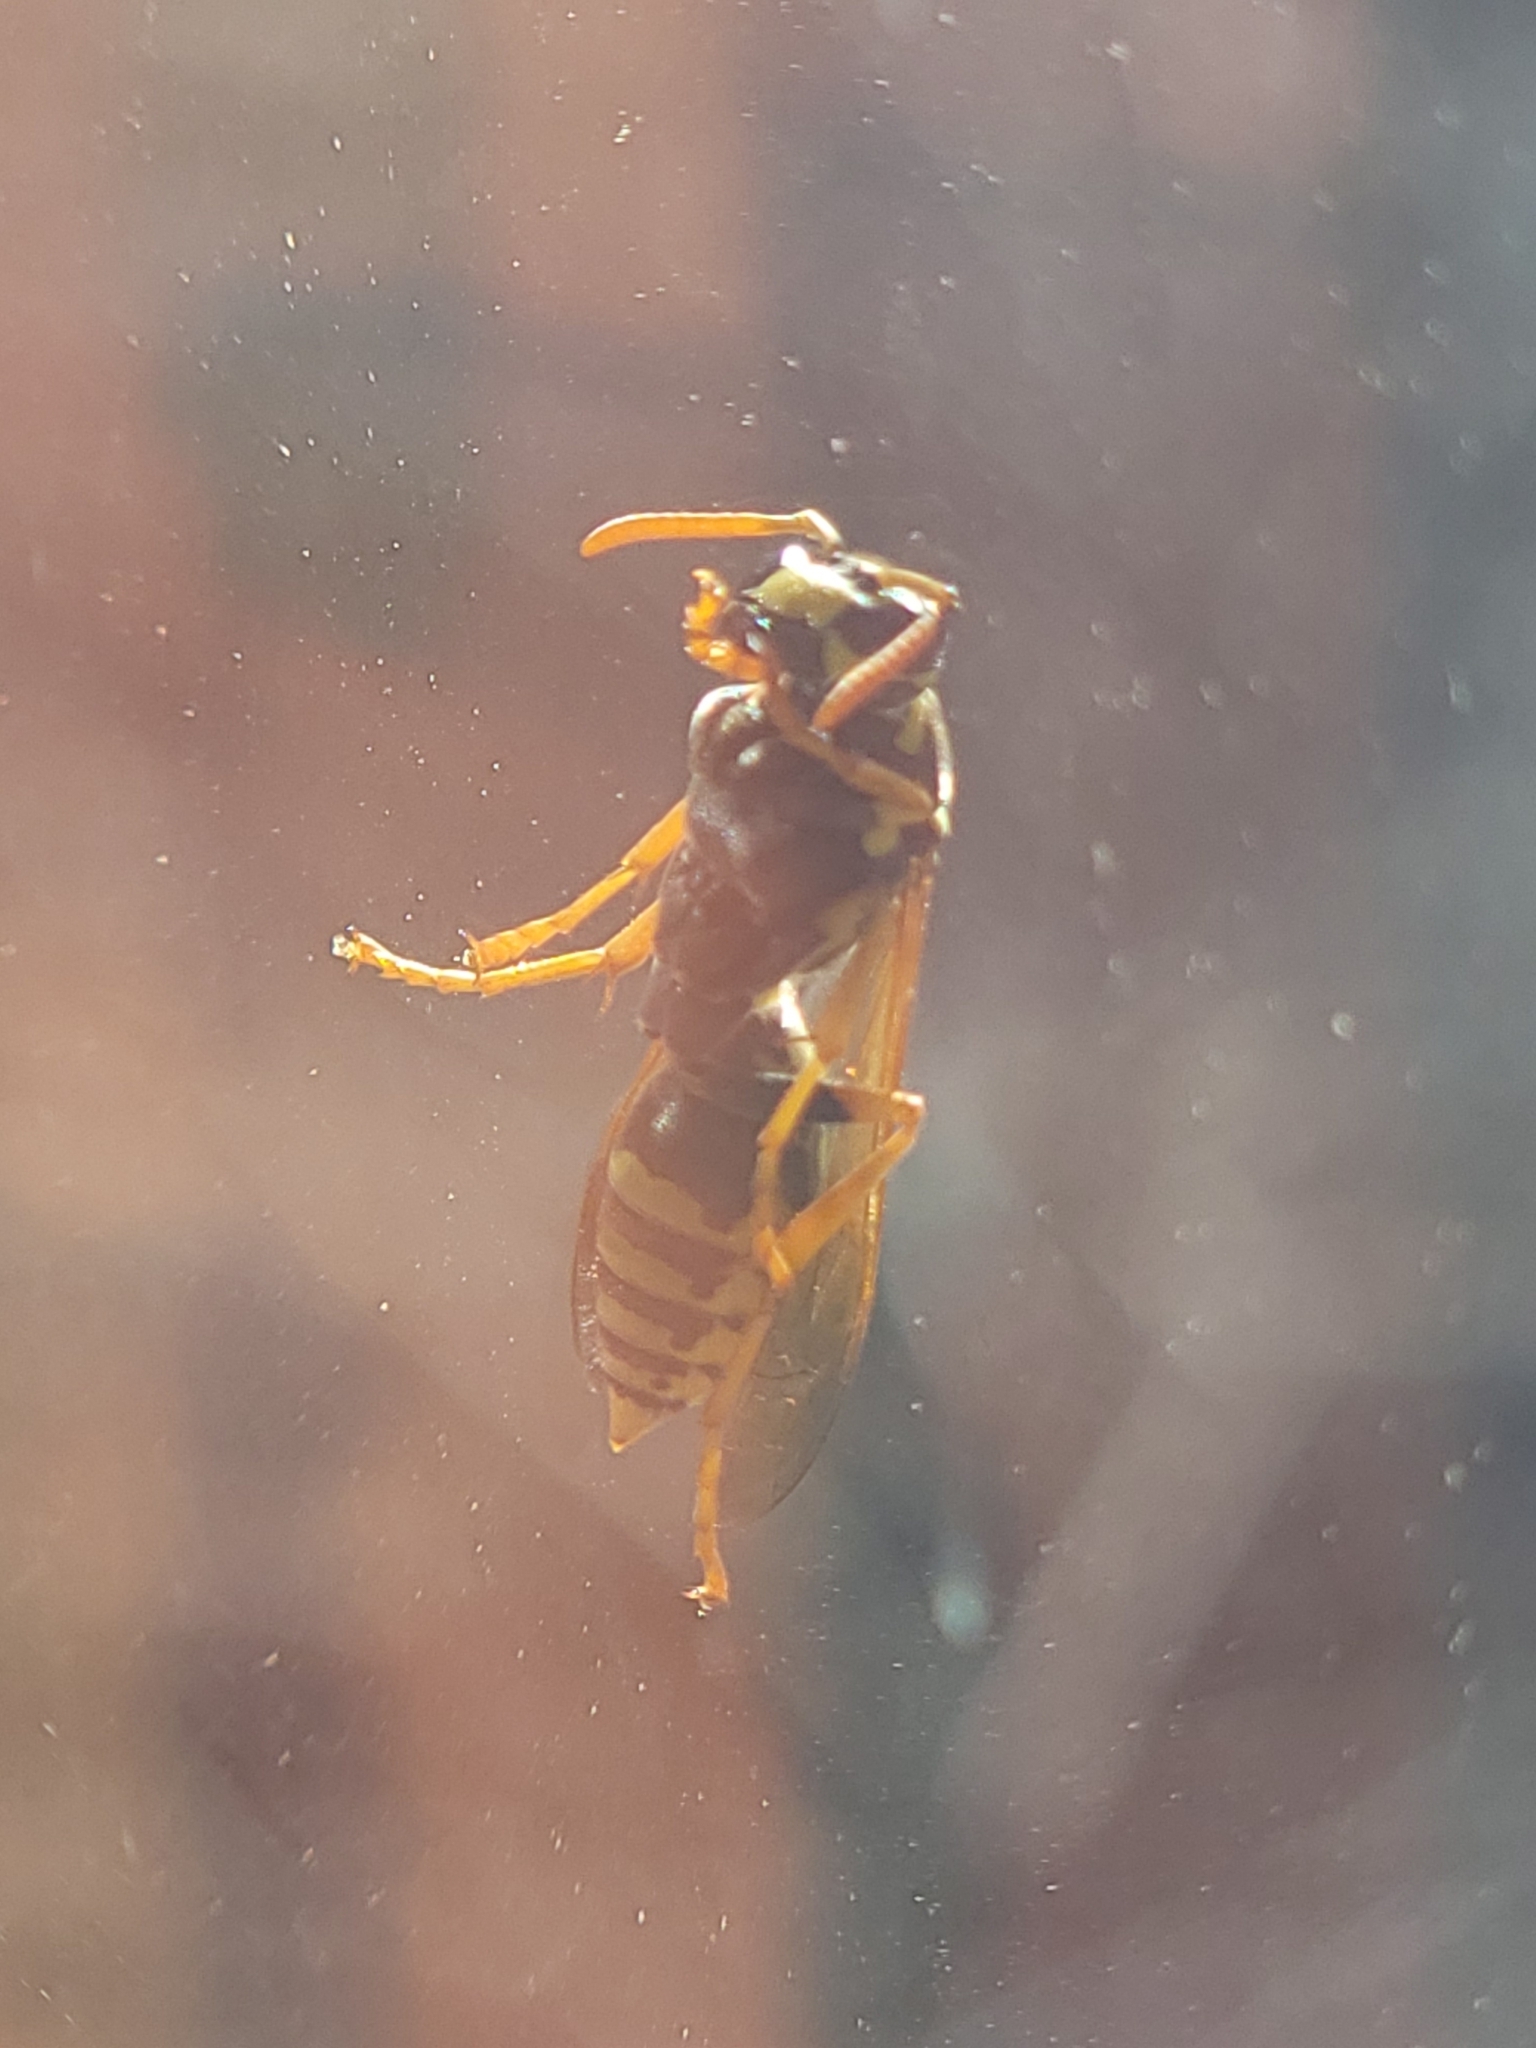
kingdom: Animalia
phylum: Arthropoda
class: Insecta
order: Hymenoptera
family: Eumenidae
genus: Polistes
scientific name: Polistes dominula
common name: Paper wasp
